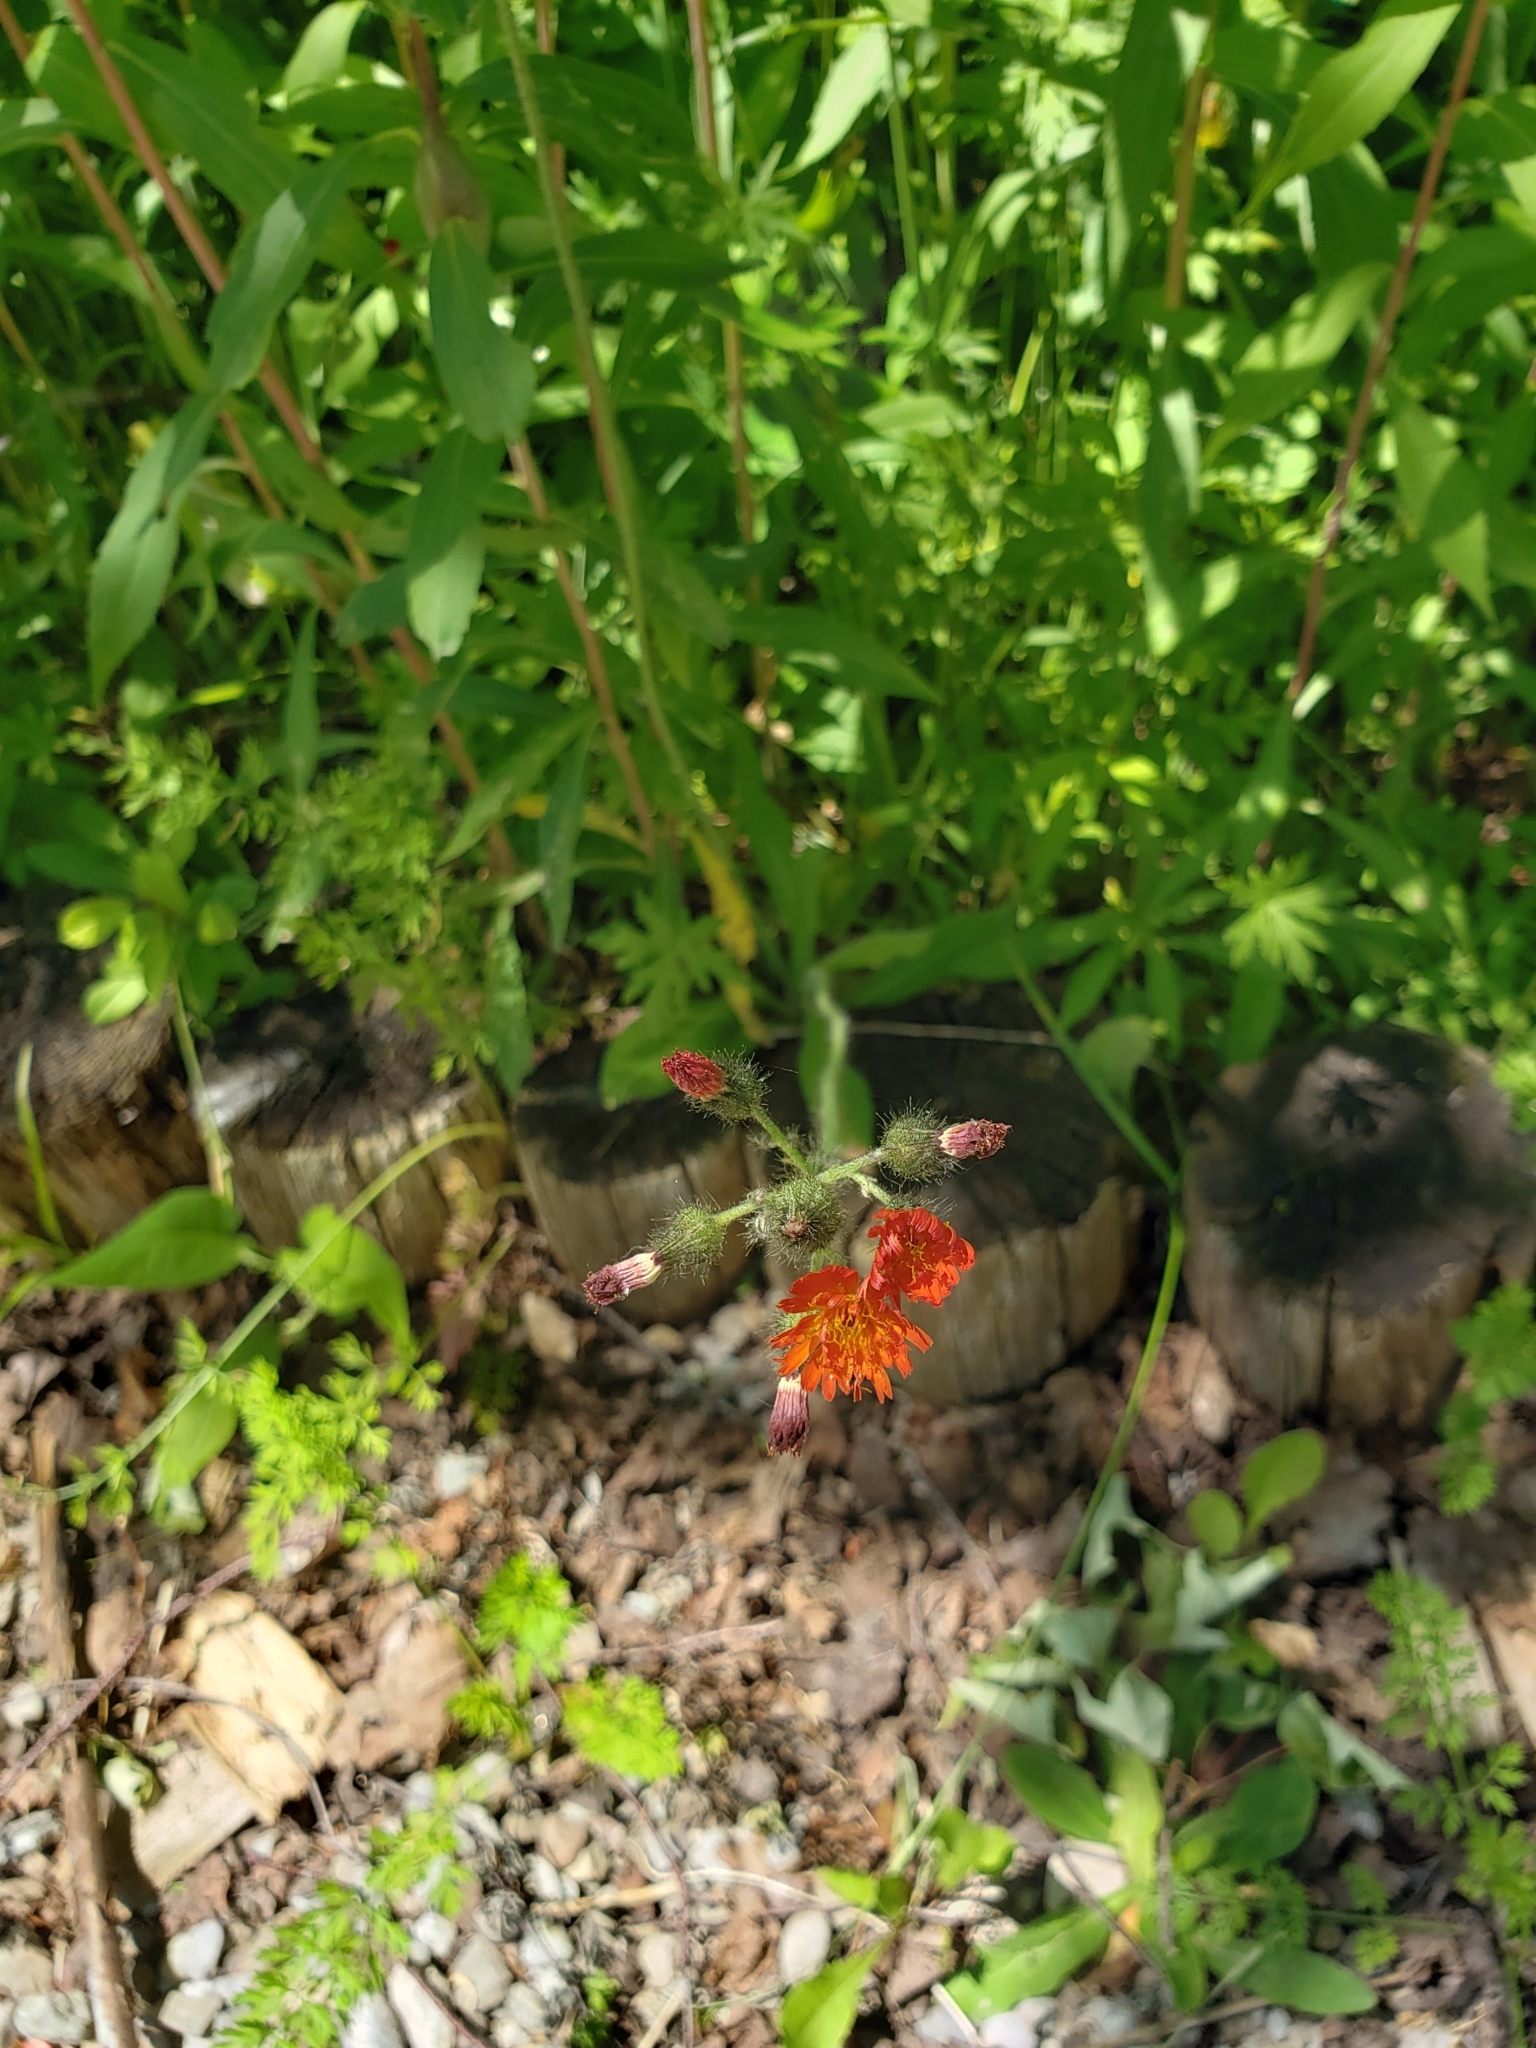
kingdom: Plantae
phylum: Tracheophyta
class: Magnoliopsida
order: Asterales
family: Asteraceae
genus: Pilosella
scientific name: Pilosella aurantiaca
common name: Fox-and-cubs
